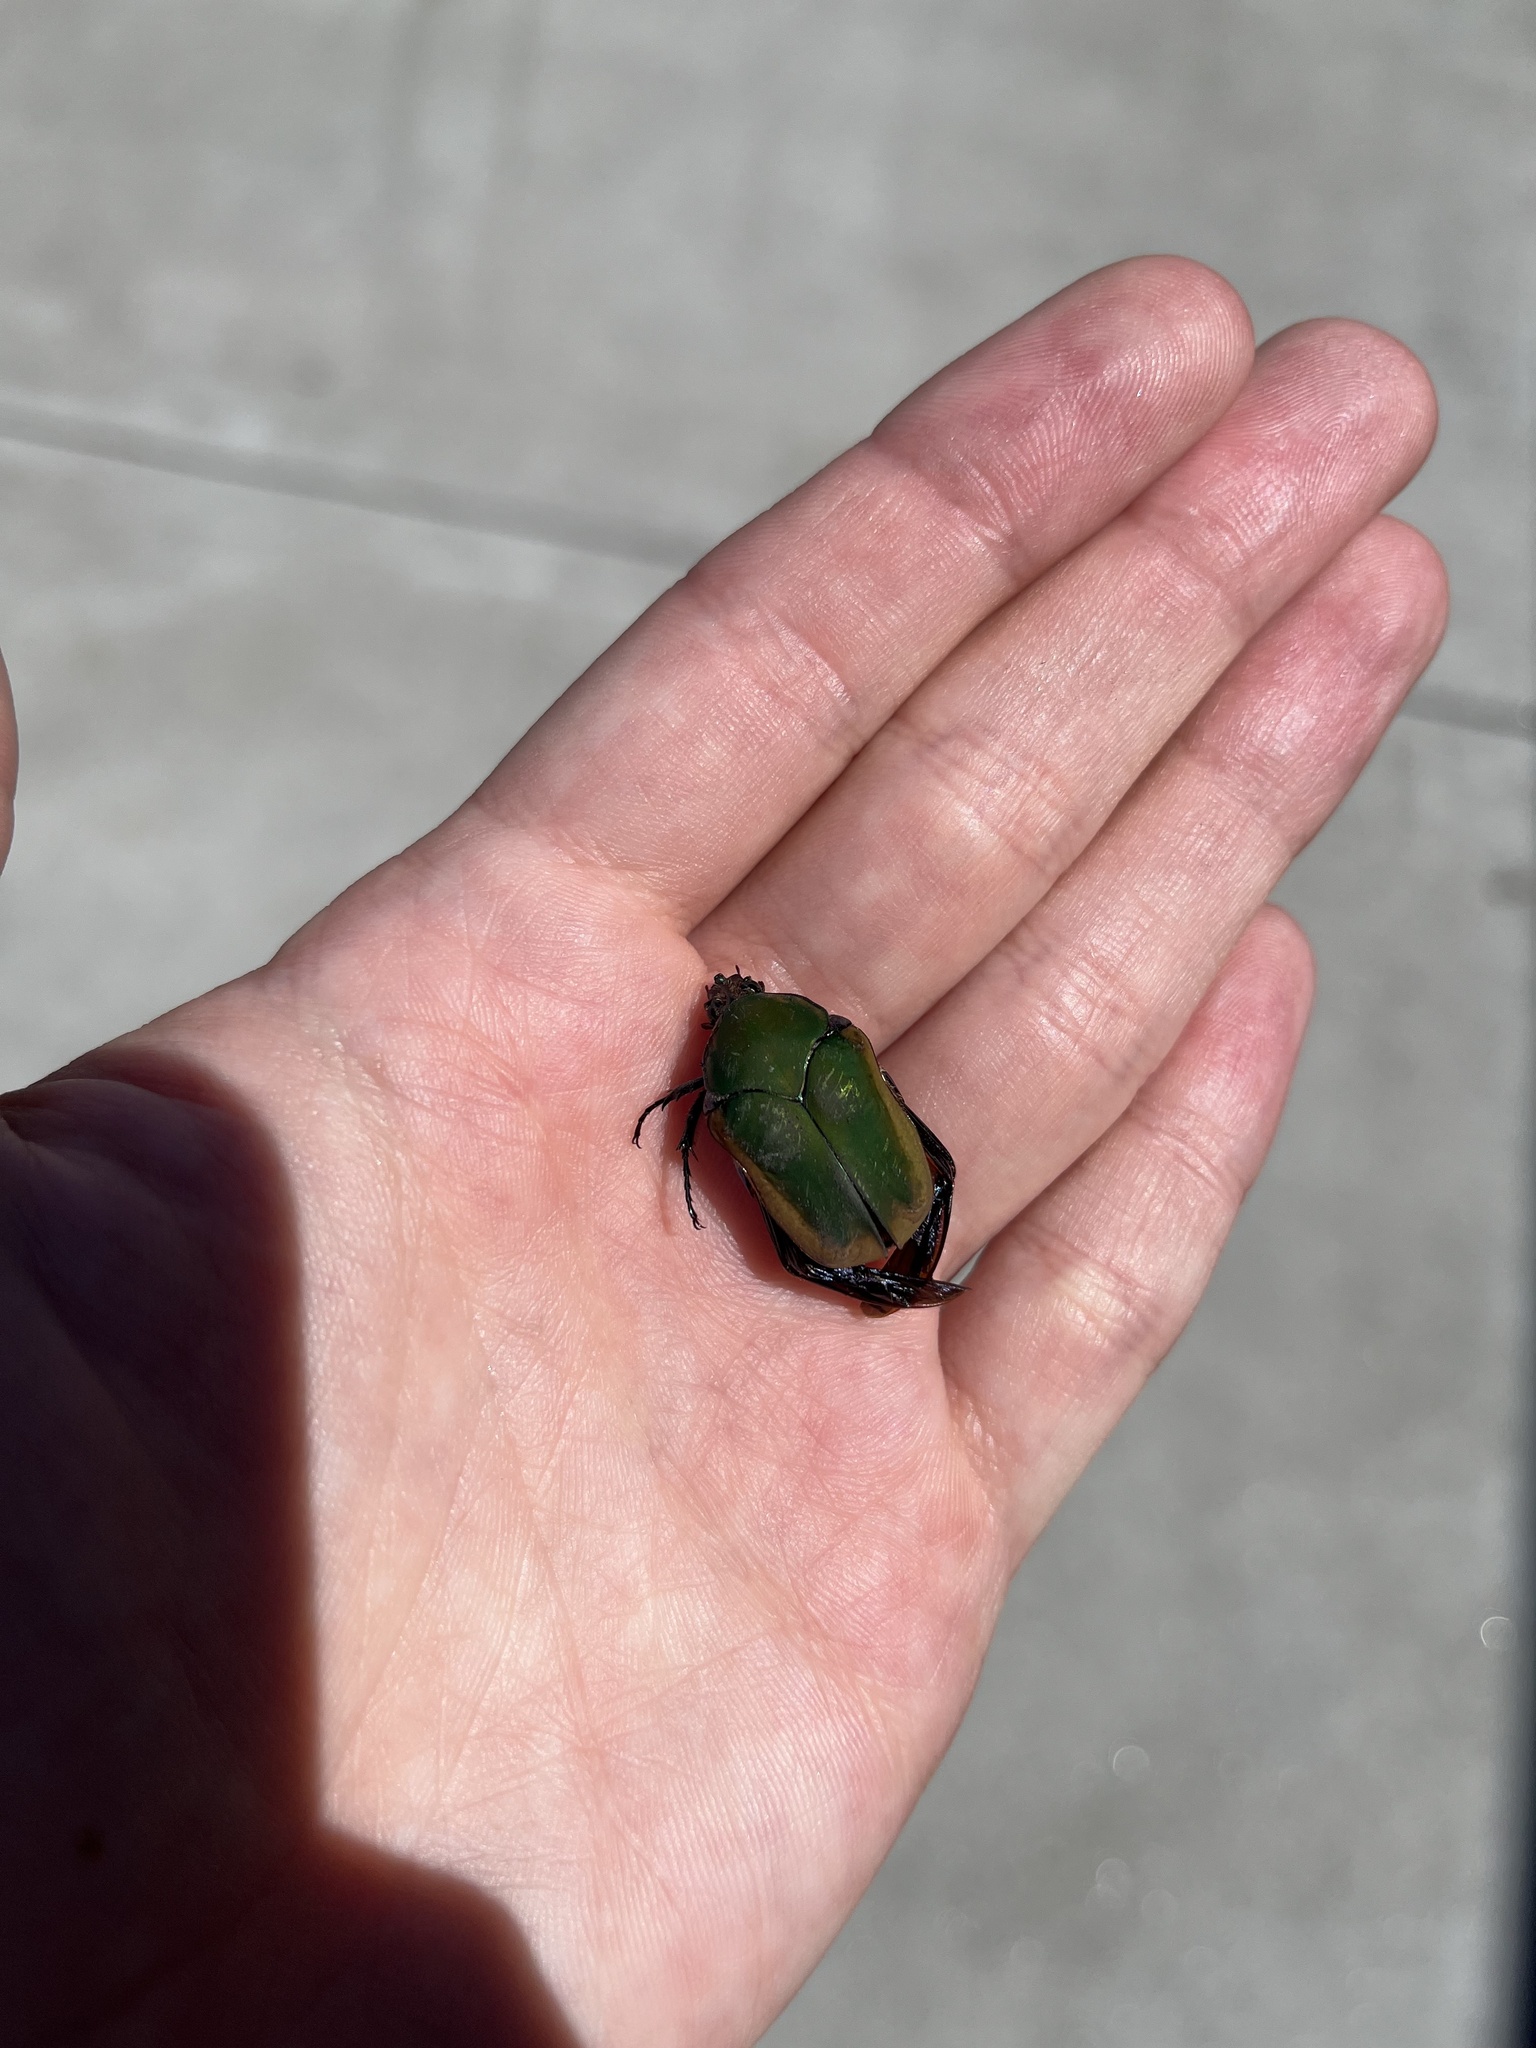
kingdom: Animalia
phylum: Arthropoda
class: Insecta
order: Coleoptera
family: Scarabaeidae
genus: Cotinis
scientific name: Cotinis mutabilis
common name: Figeater beetle
